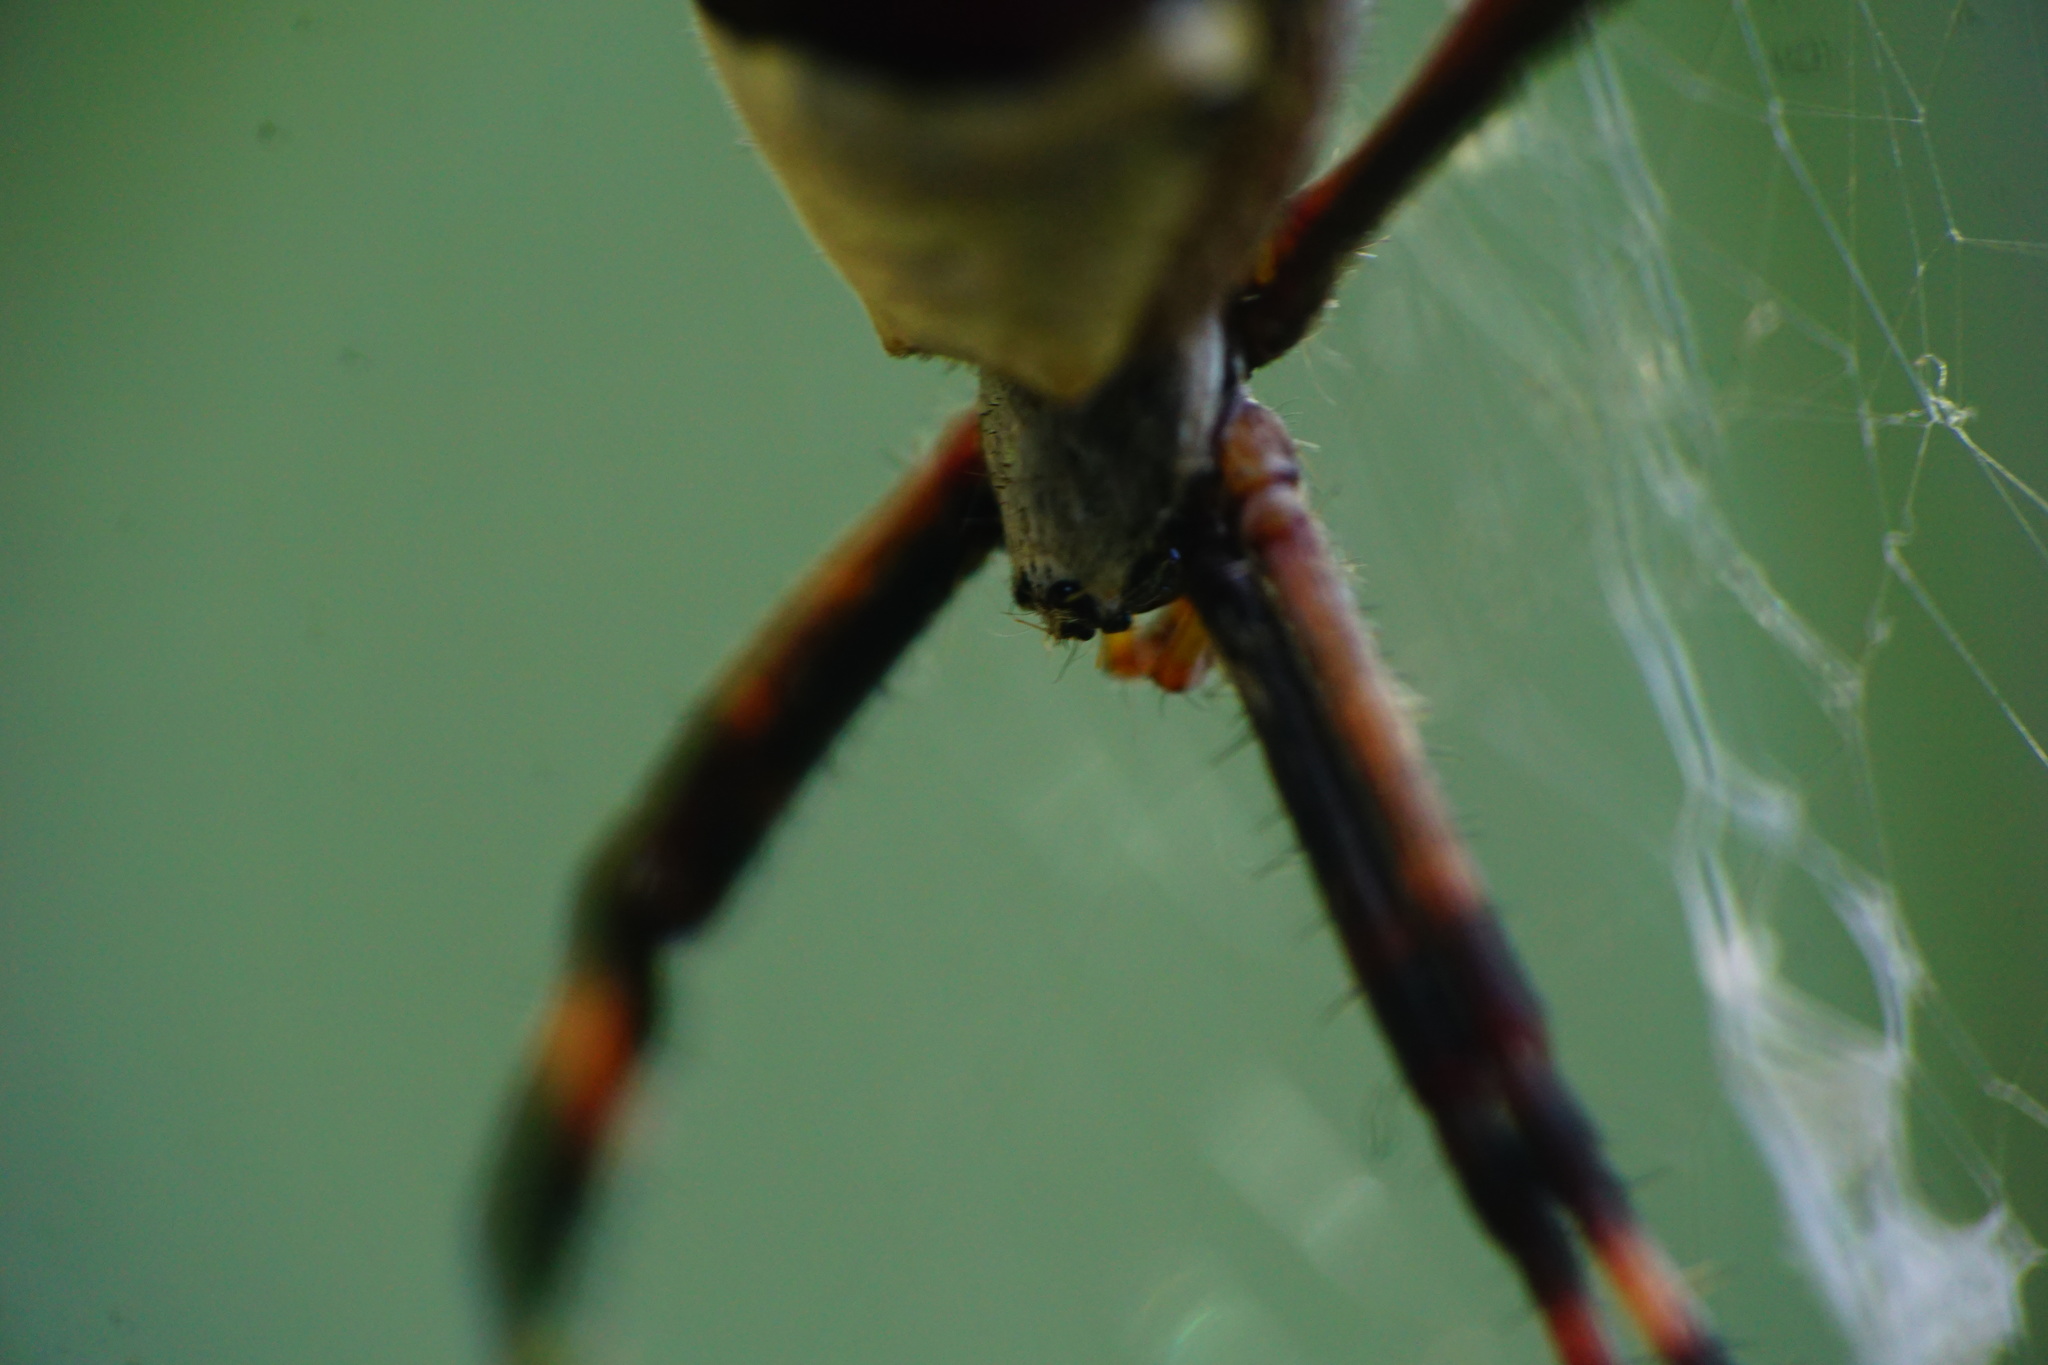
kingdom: Animalia
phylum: Arthropoda
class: Arachnida
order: Araneae
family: Araneidae
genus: Argiope
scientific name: Argiope argentata
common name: Orb weavers
